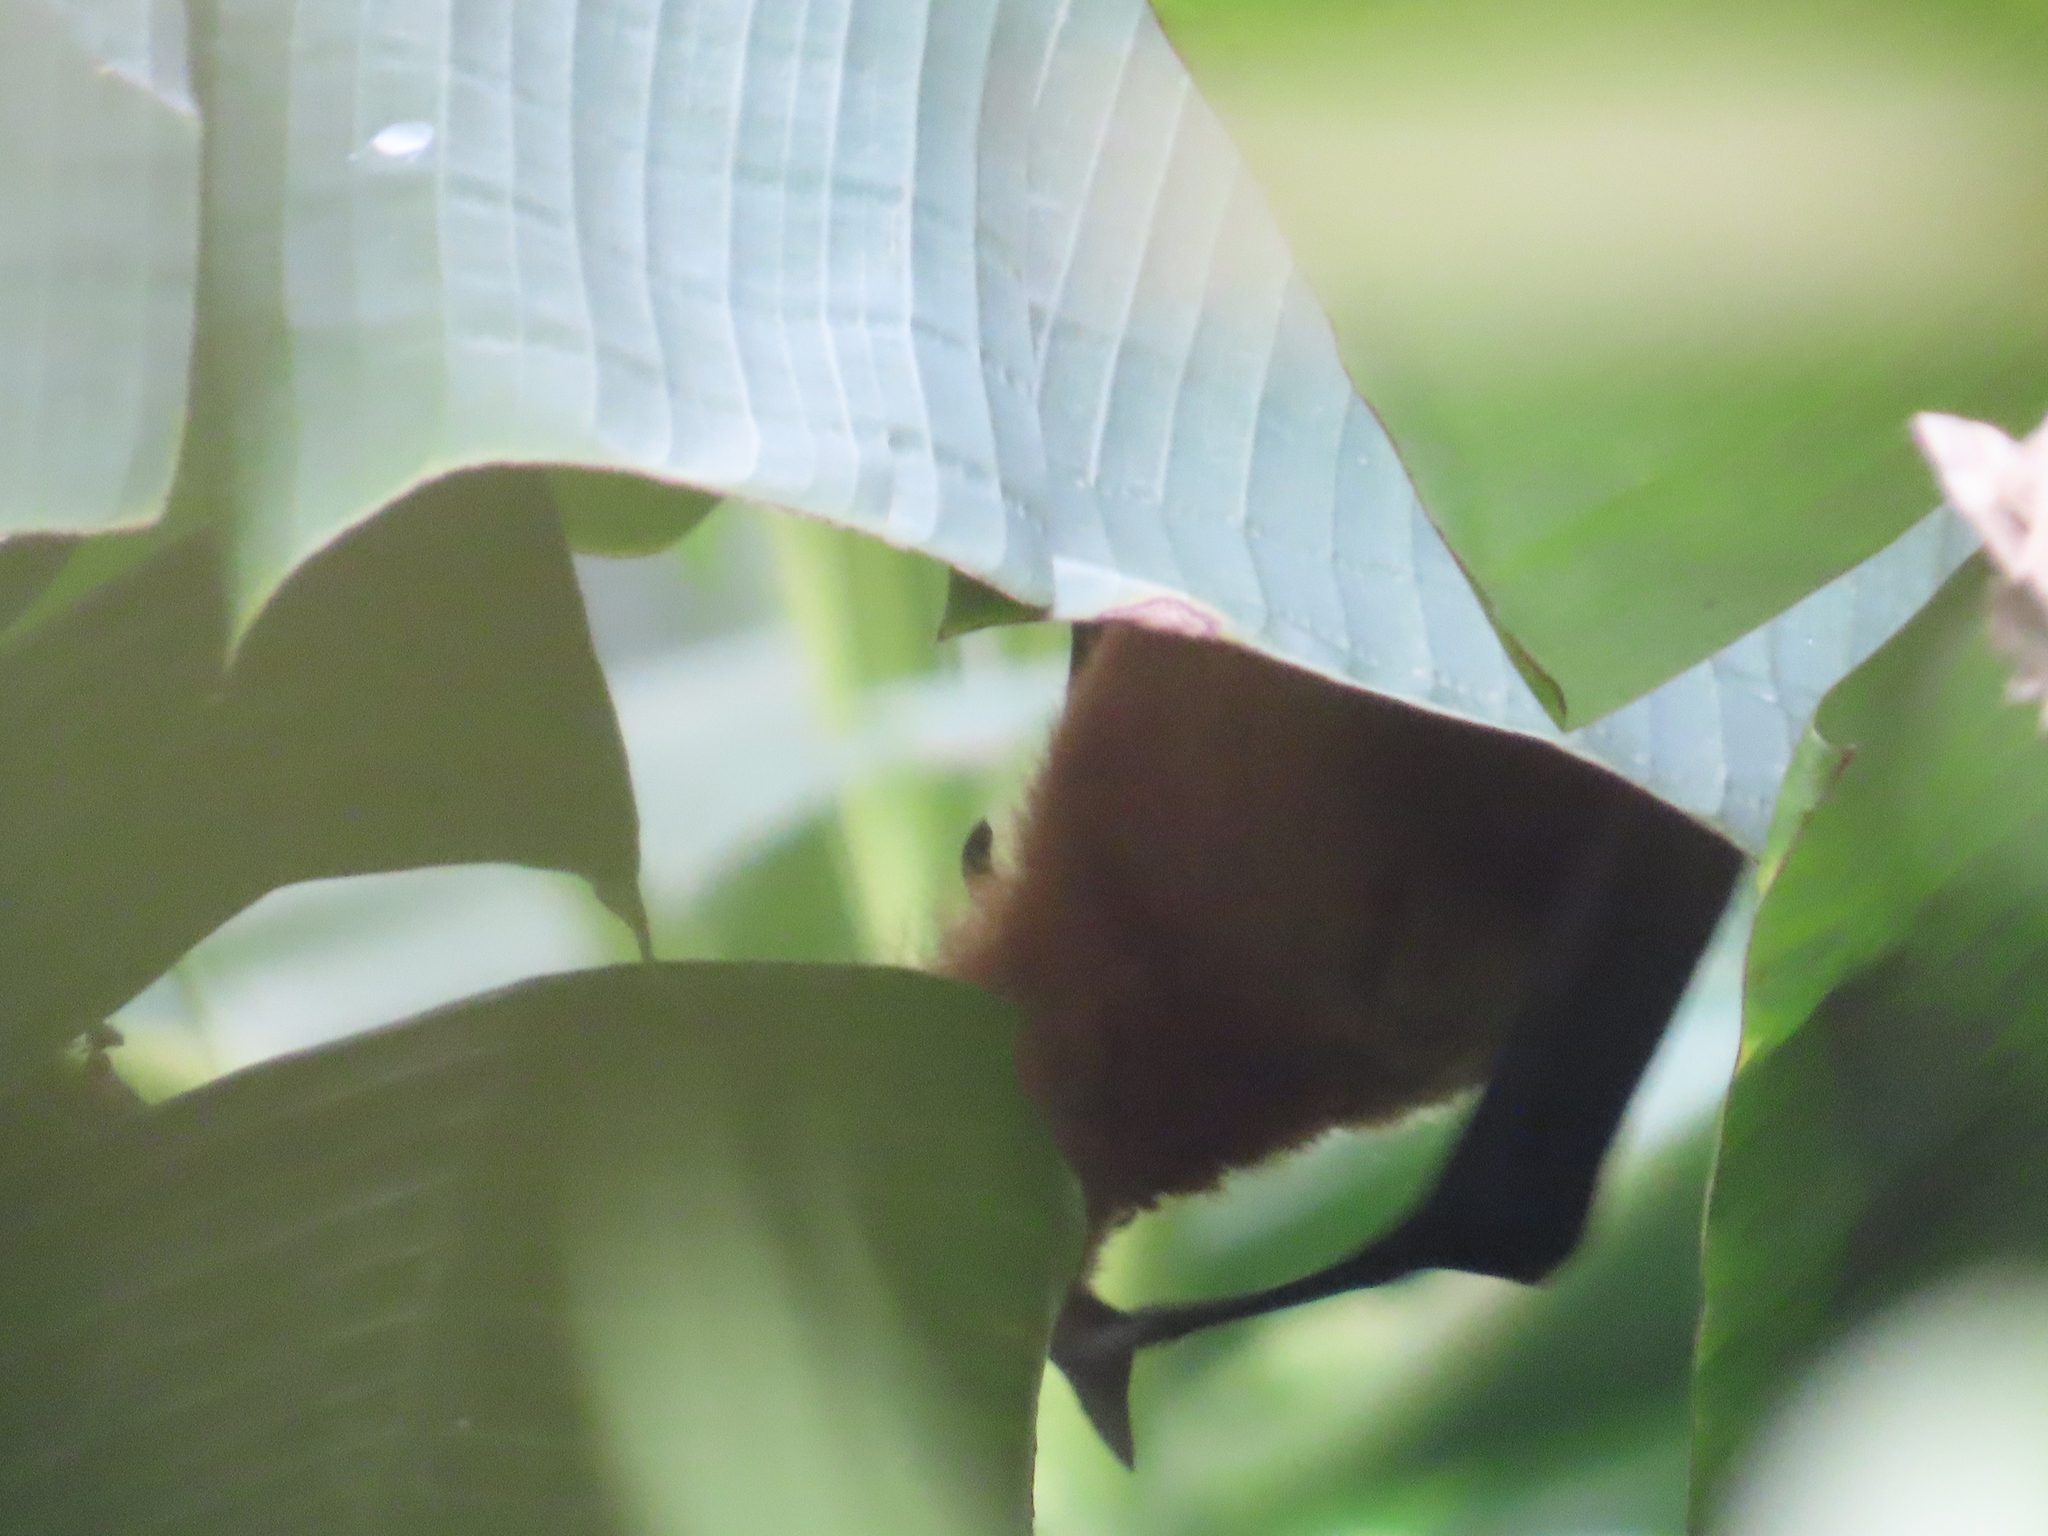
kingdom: Animalia
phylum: Chordata
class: Mammalia
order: Chiroptera
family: Pteropodidae
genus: Pteropus
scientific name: Pteropus vampyrus
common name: Large flying fox
